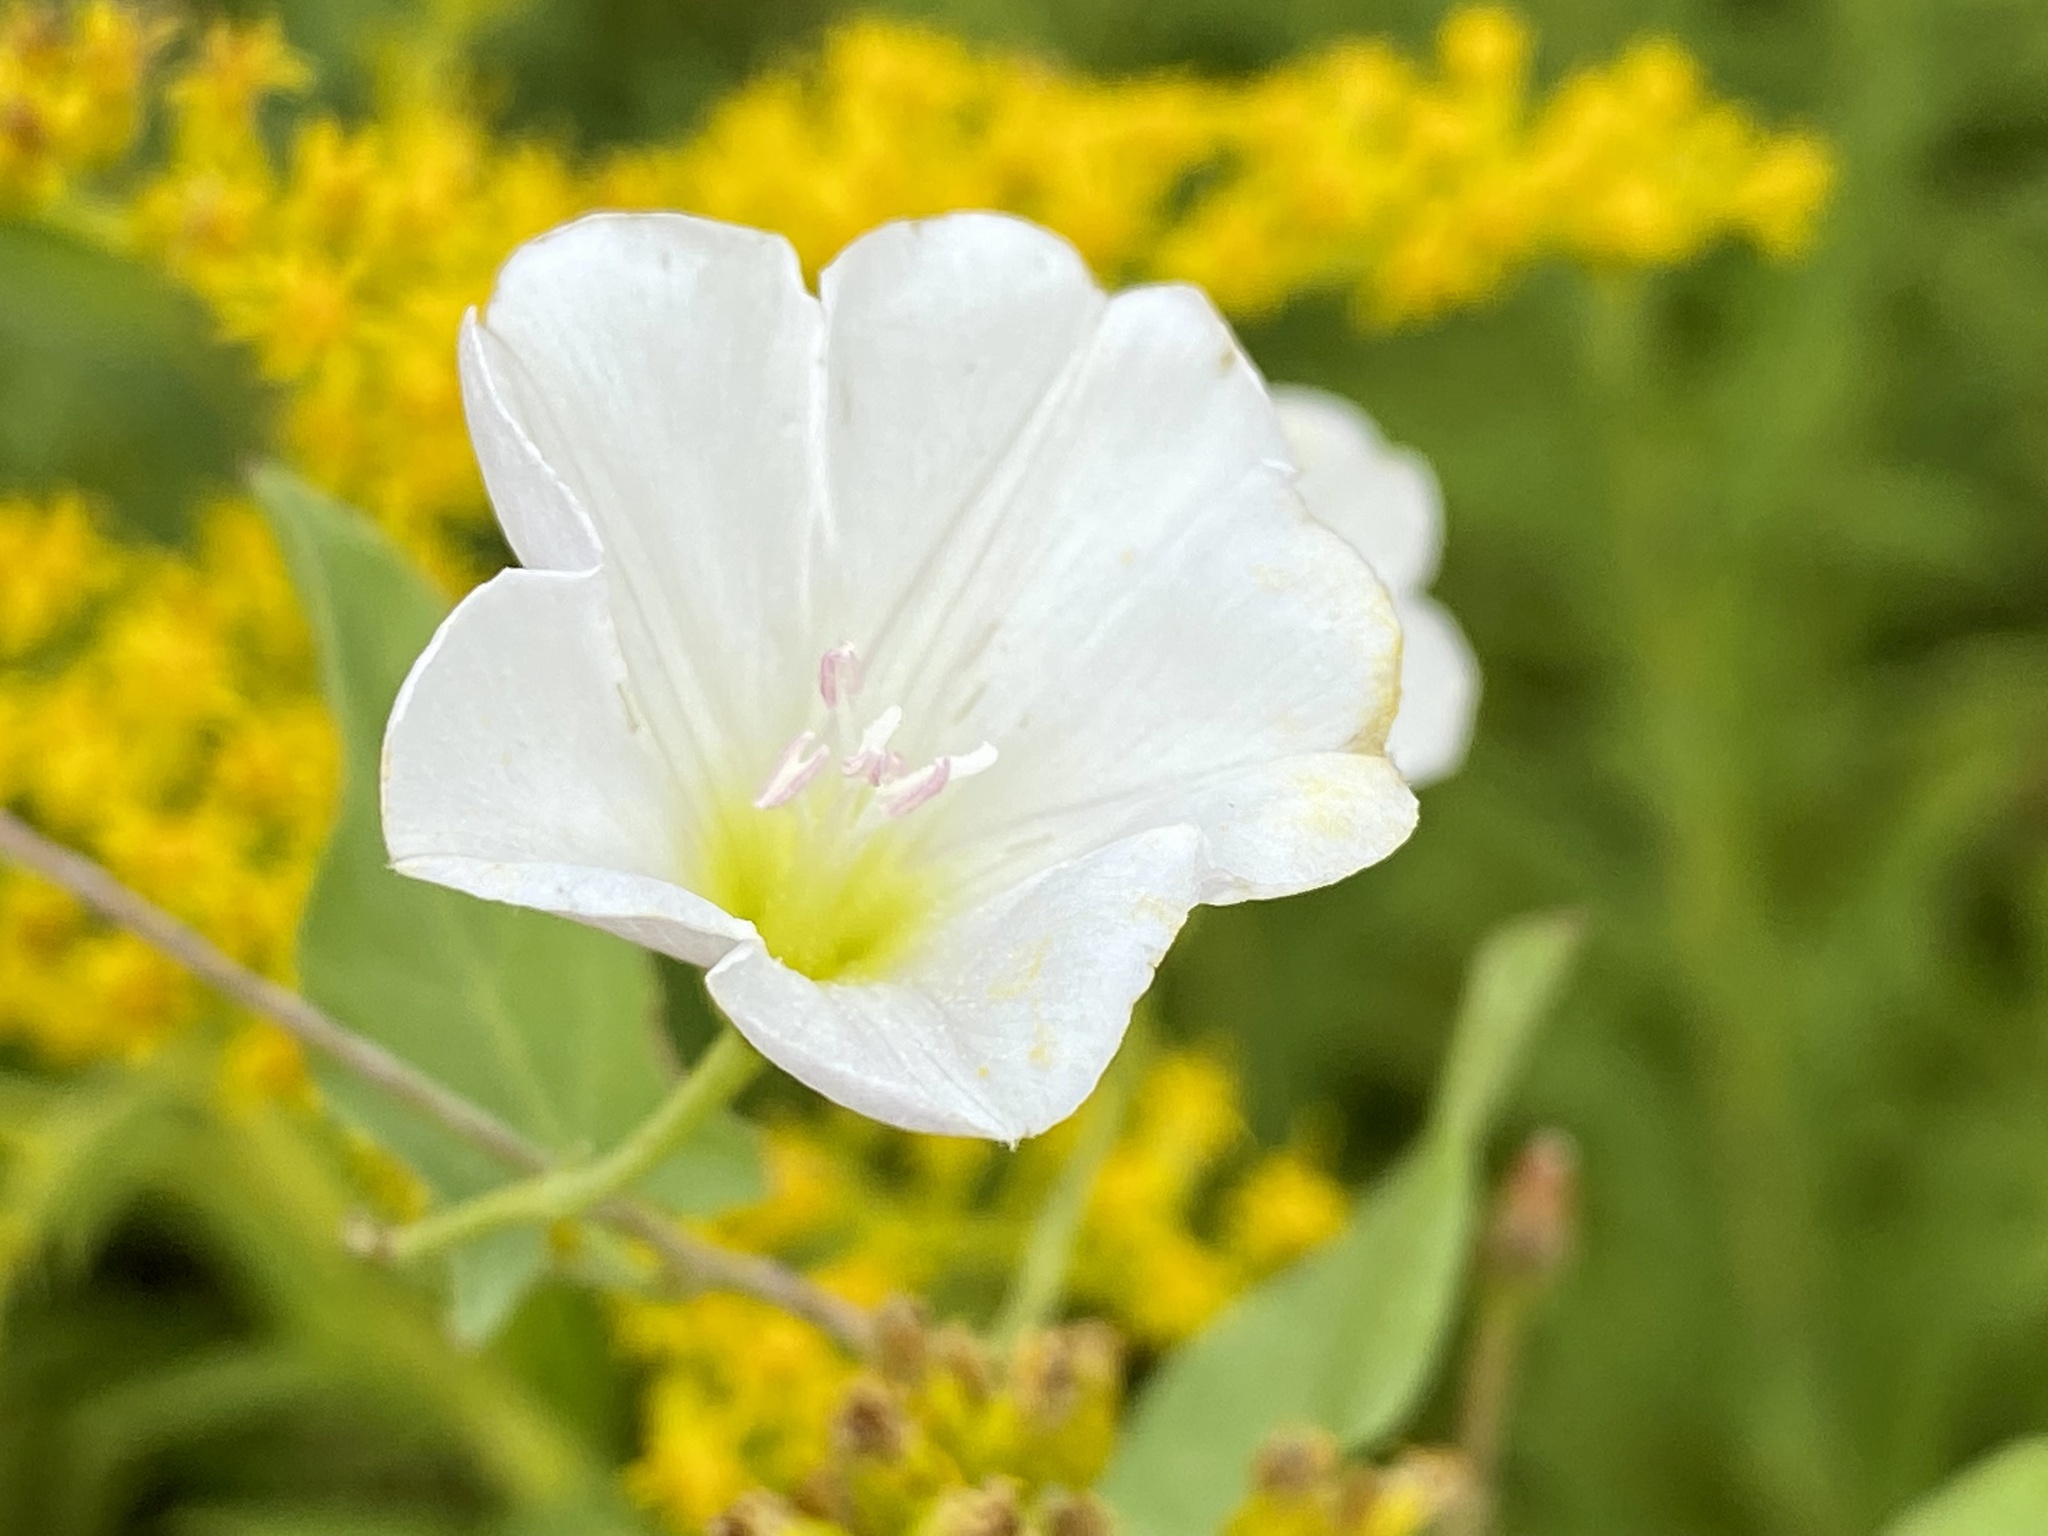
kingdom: Plantae
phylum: Tracheophyta
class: Magnoliopsida
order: Solanales
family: Convolvulaceae
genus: Convolvulus
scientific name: Convolvulus arvensis
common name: Field bindweed
